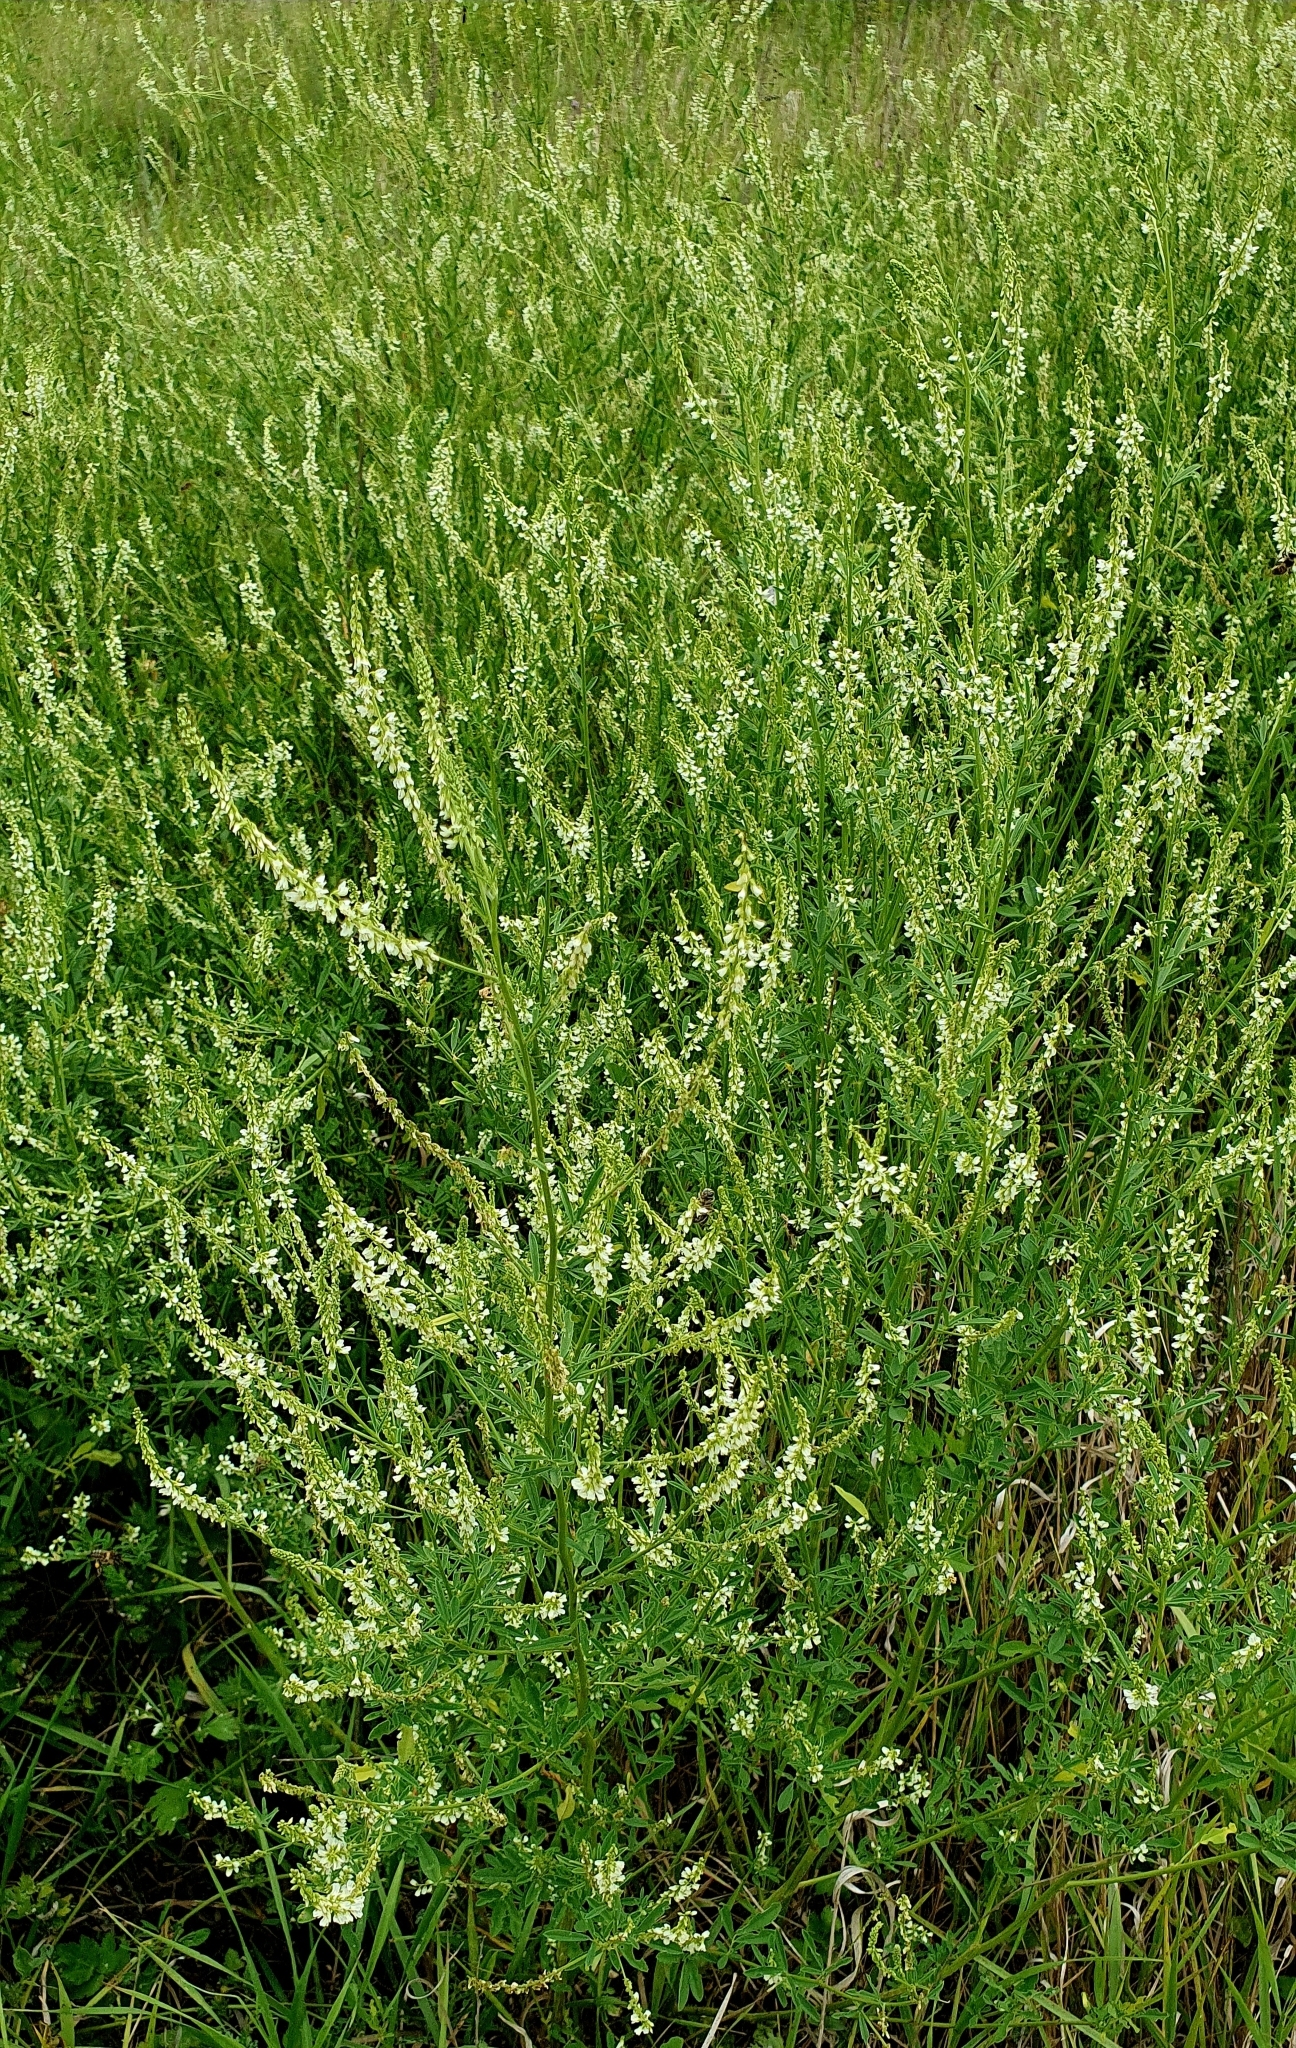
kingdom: Plantae
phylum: Tracheophyta
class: Magnoliopsida
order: Fabales
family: Fabaceae
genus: Melilotus
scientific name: Melilotus albus
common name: White melilot
